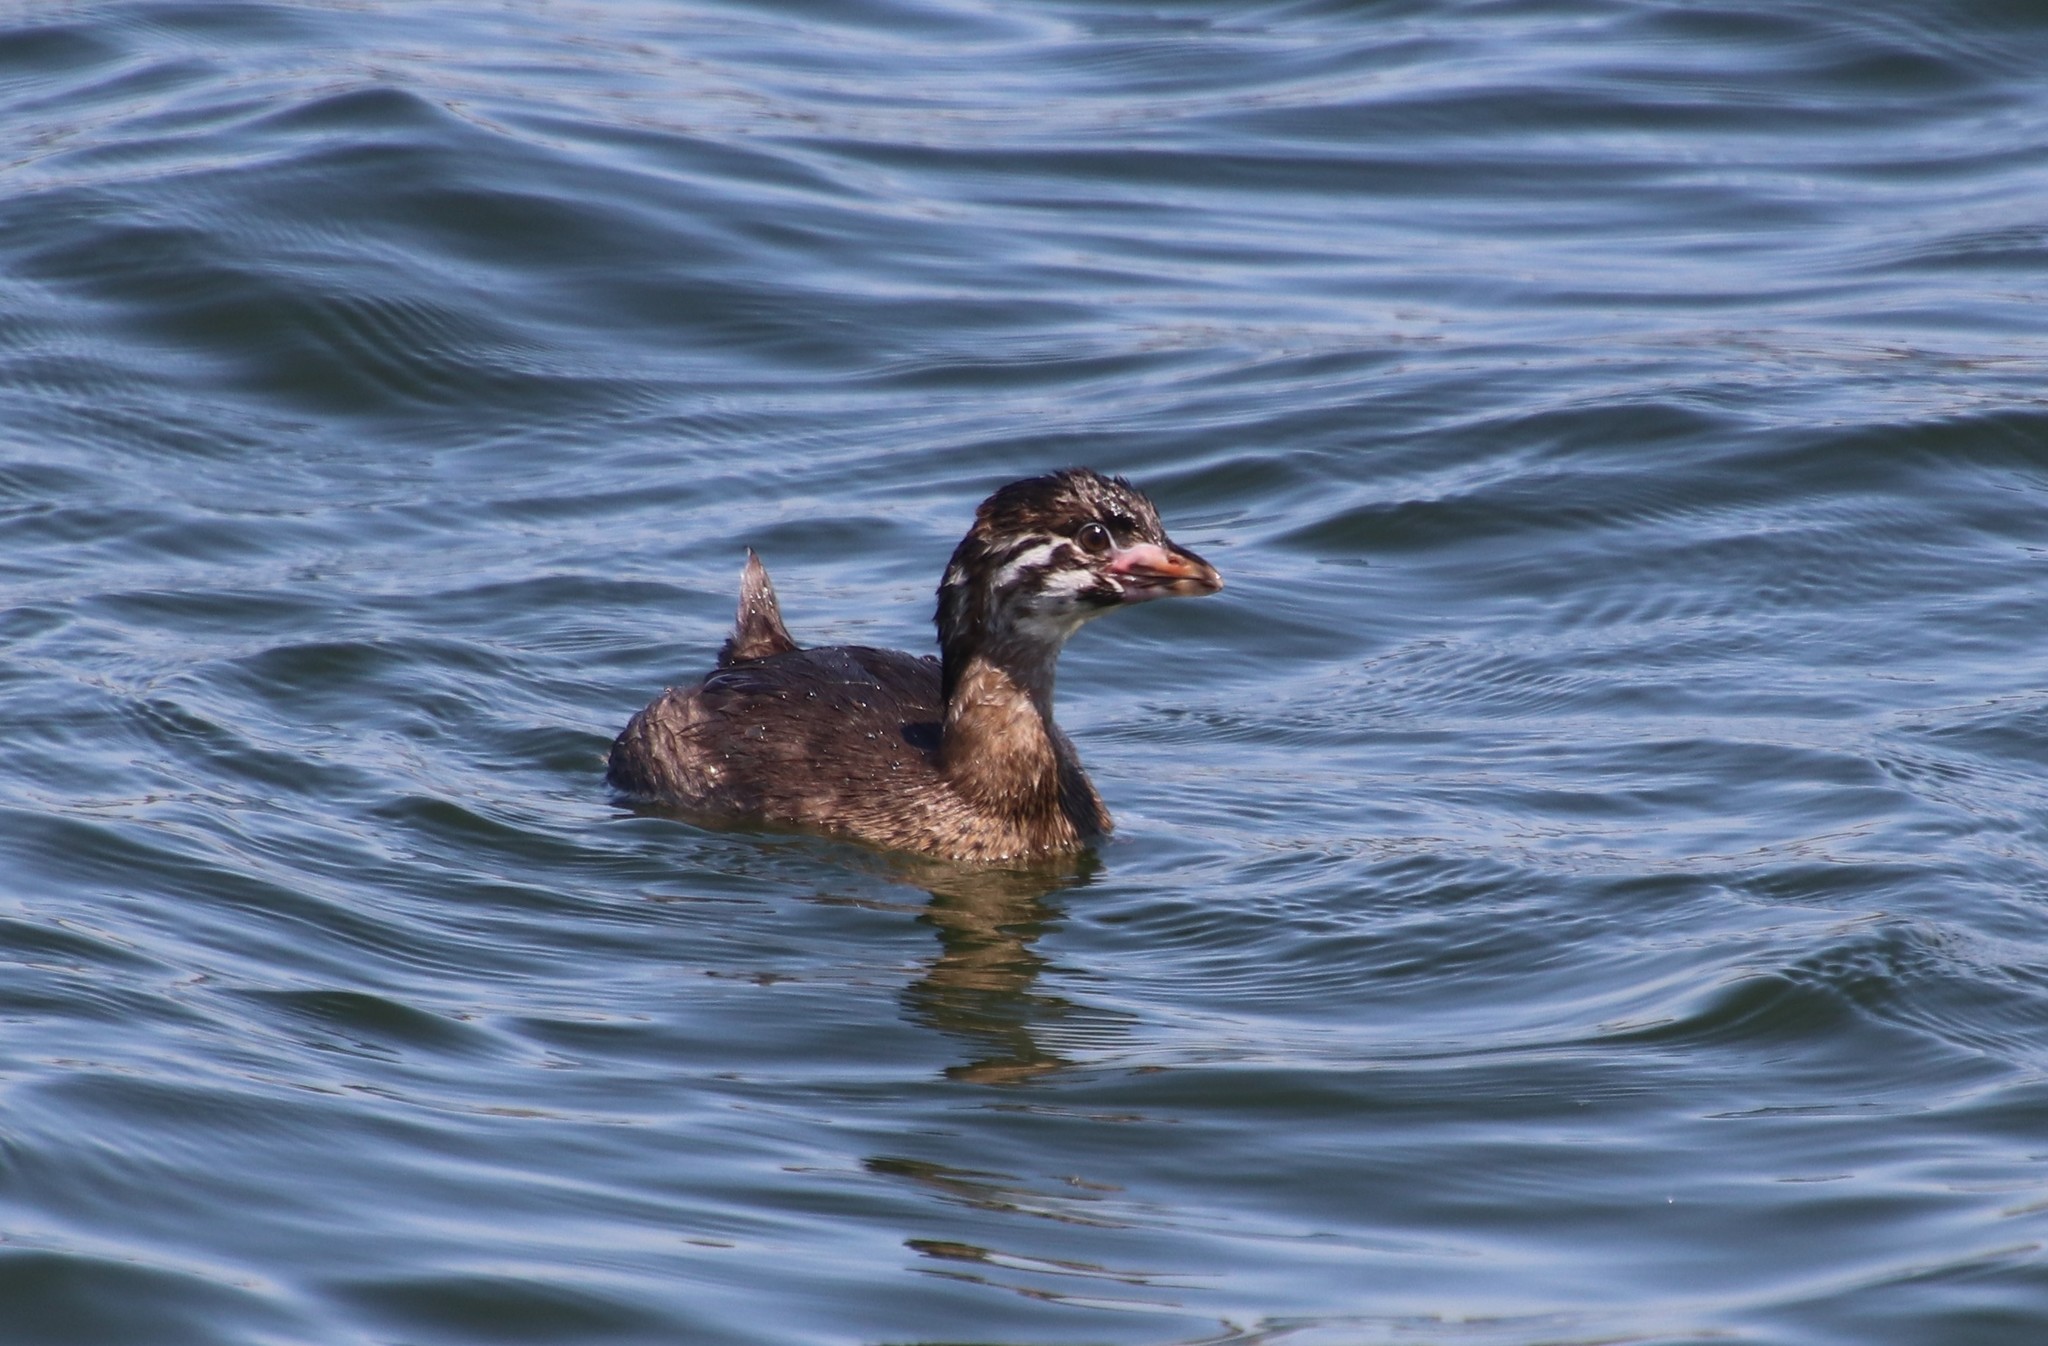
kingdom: Animalia
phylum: Chordata
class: Aves
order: Podicipediformes
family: Podicipedidae
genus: Podilymbus
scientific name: Podilymbus podiceps
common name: Pied-billed grebe
